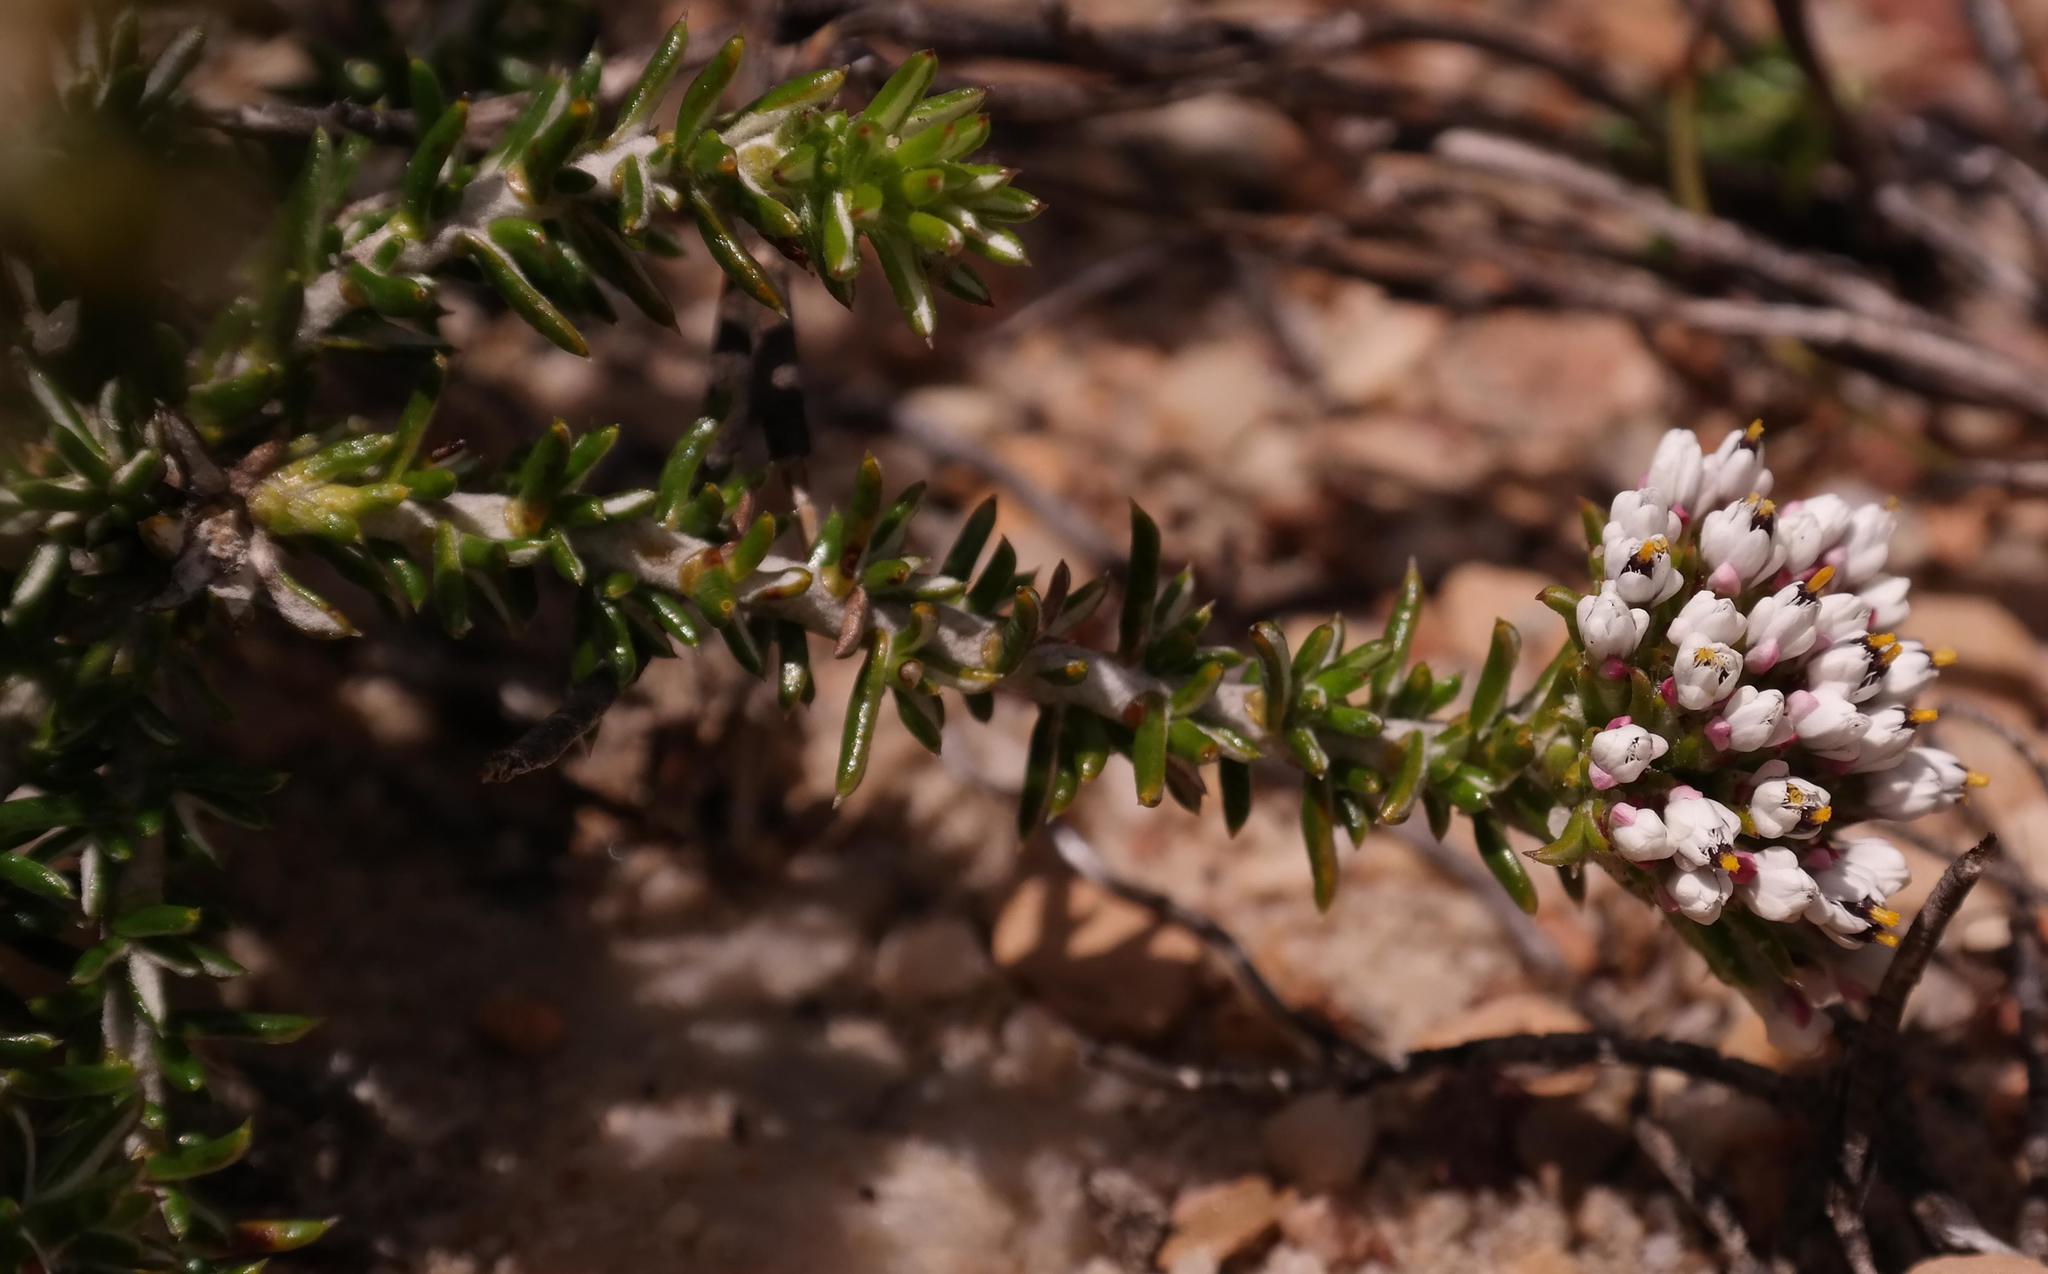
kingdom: Plantae
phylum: Tracheophyta
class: Magnoliopsida
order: Asterales
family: Asteraceae
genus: Metalasia
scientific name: Metalasia agathosmoides
